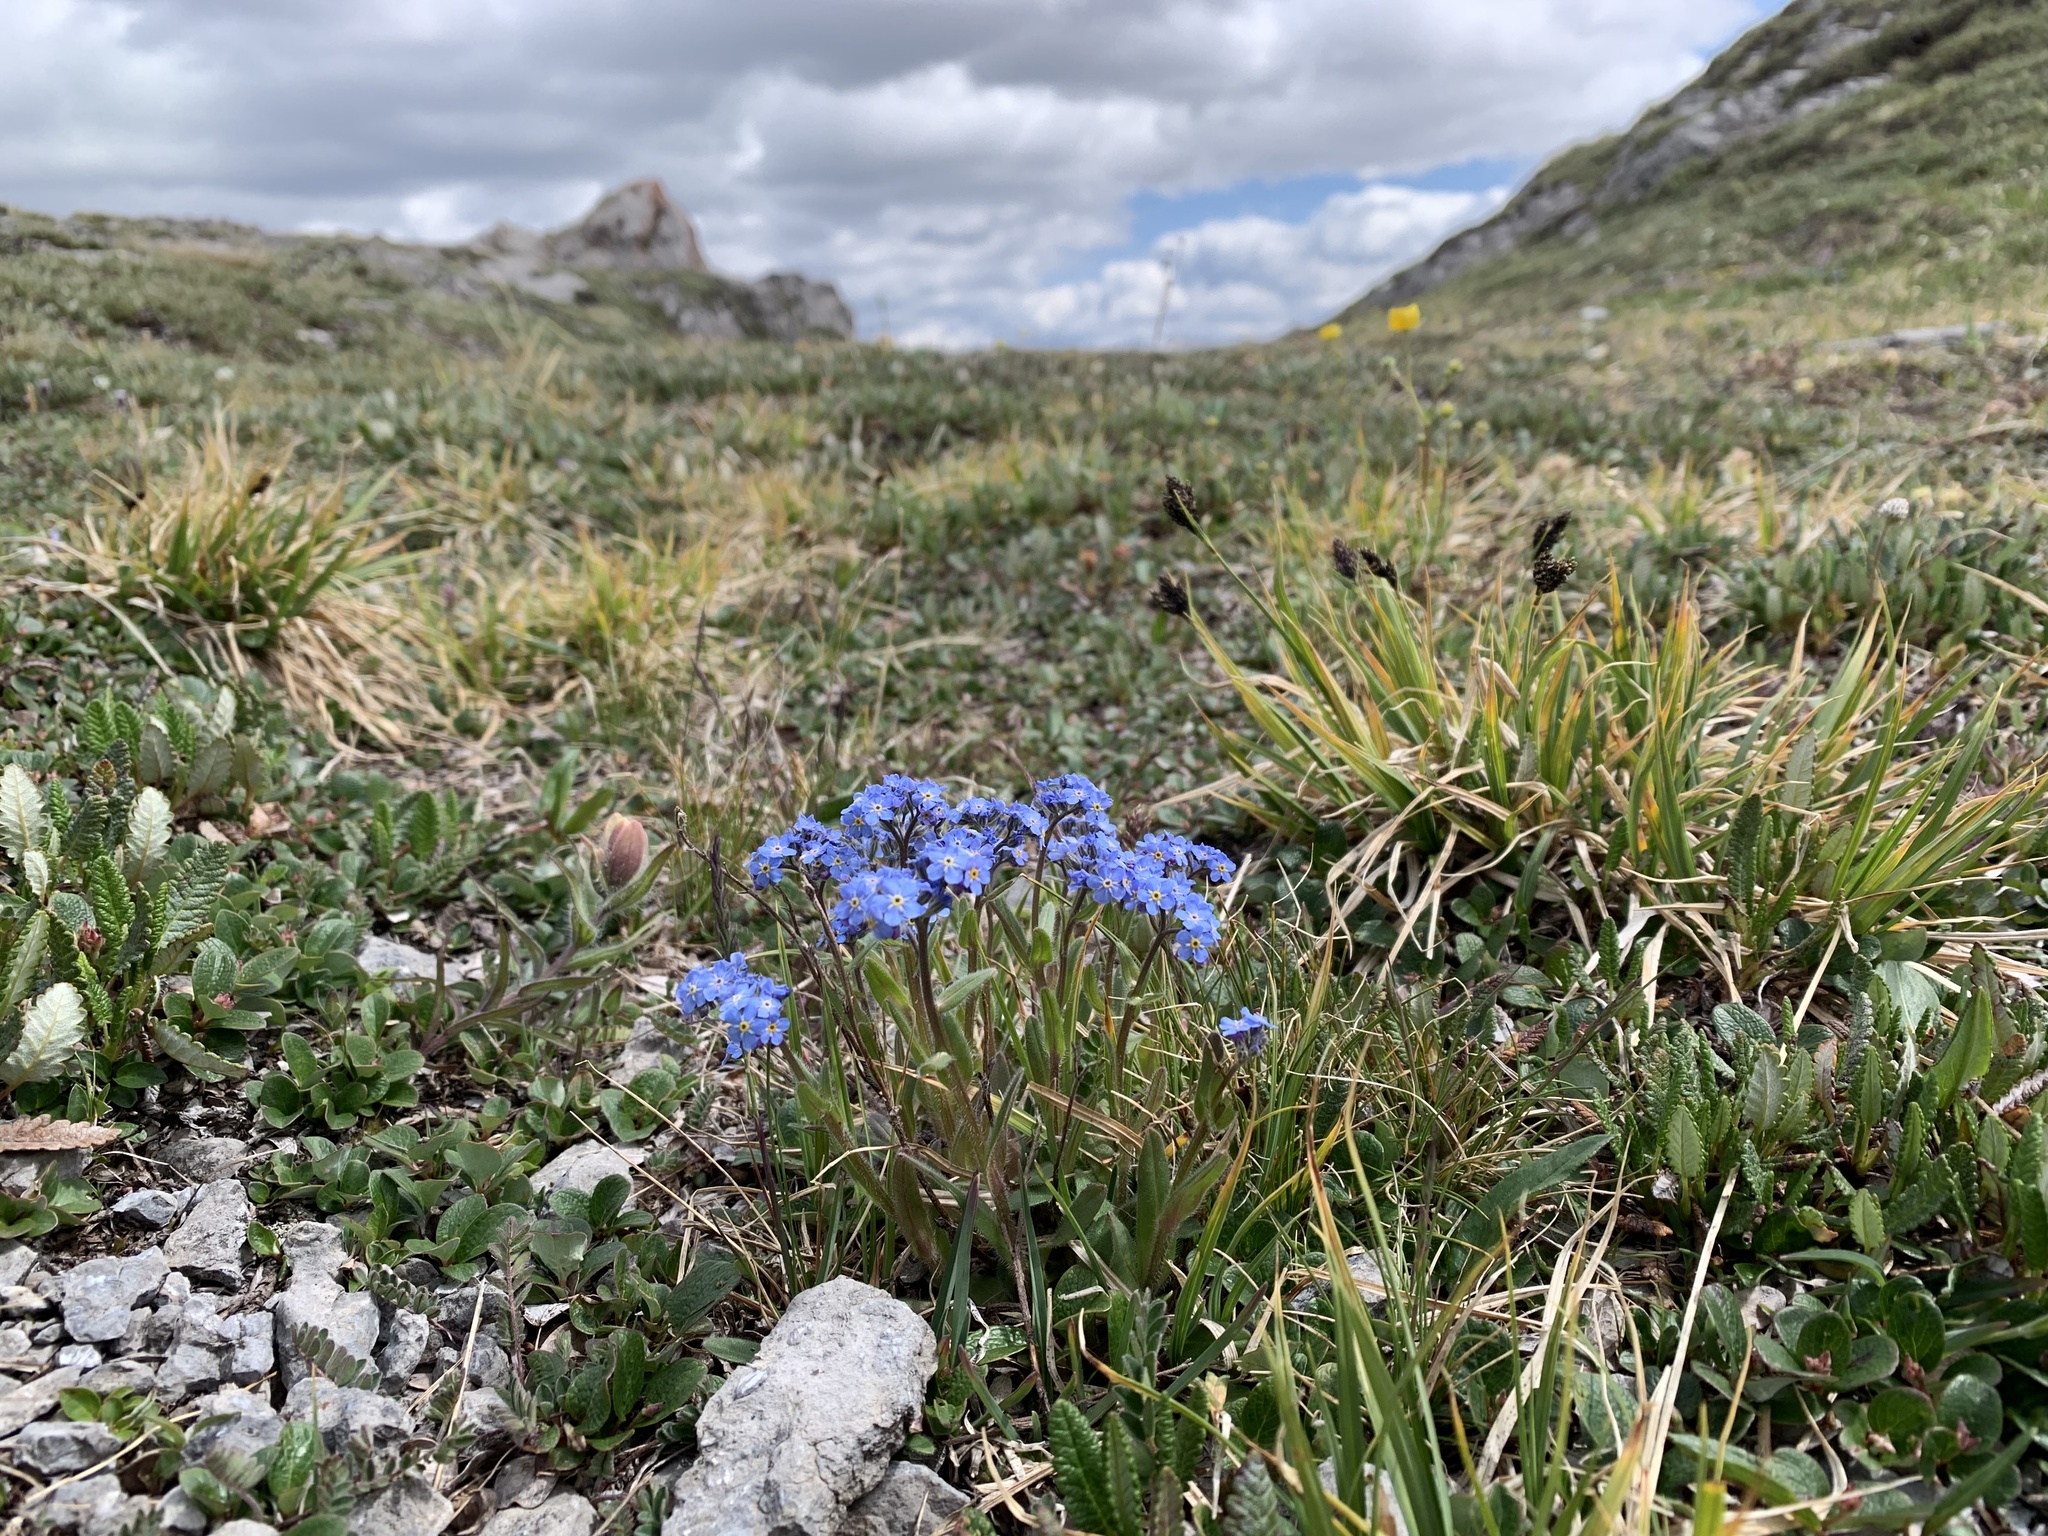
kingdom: Plantae
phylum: Tracheophyta
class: Magnoliopsida
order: Boraginales
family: Boraginaceae
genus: Myosotis
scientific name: Myosotis asiatica
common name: Asian forget-me-not
